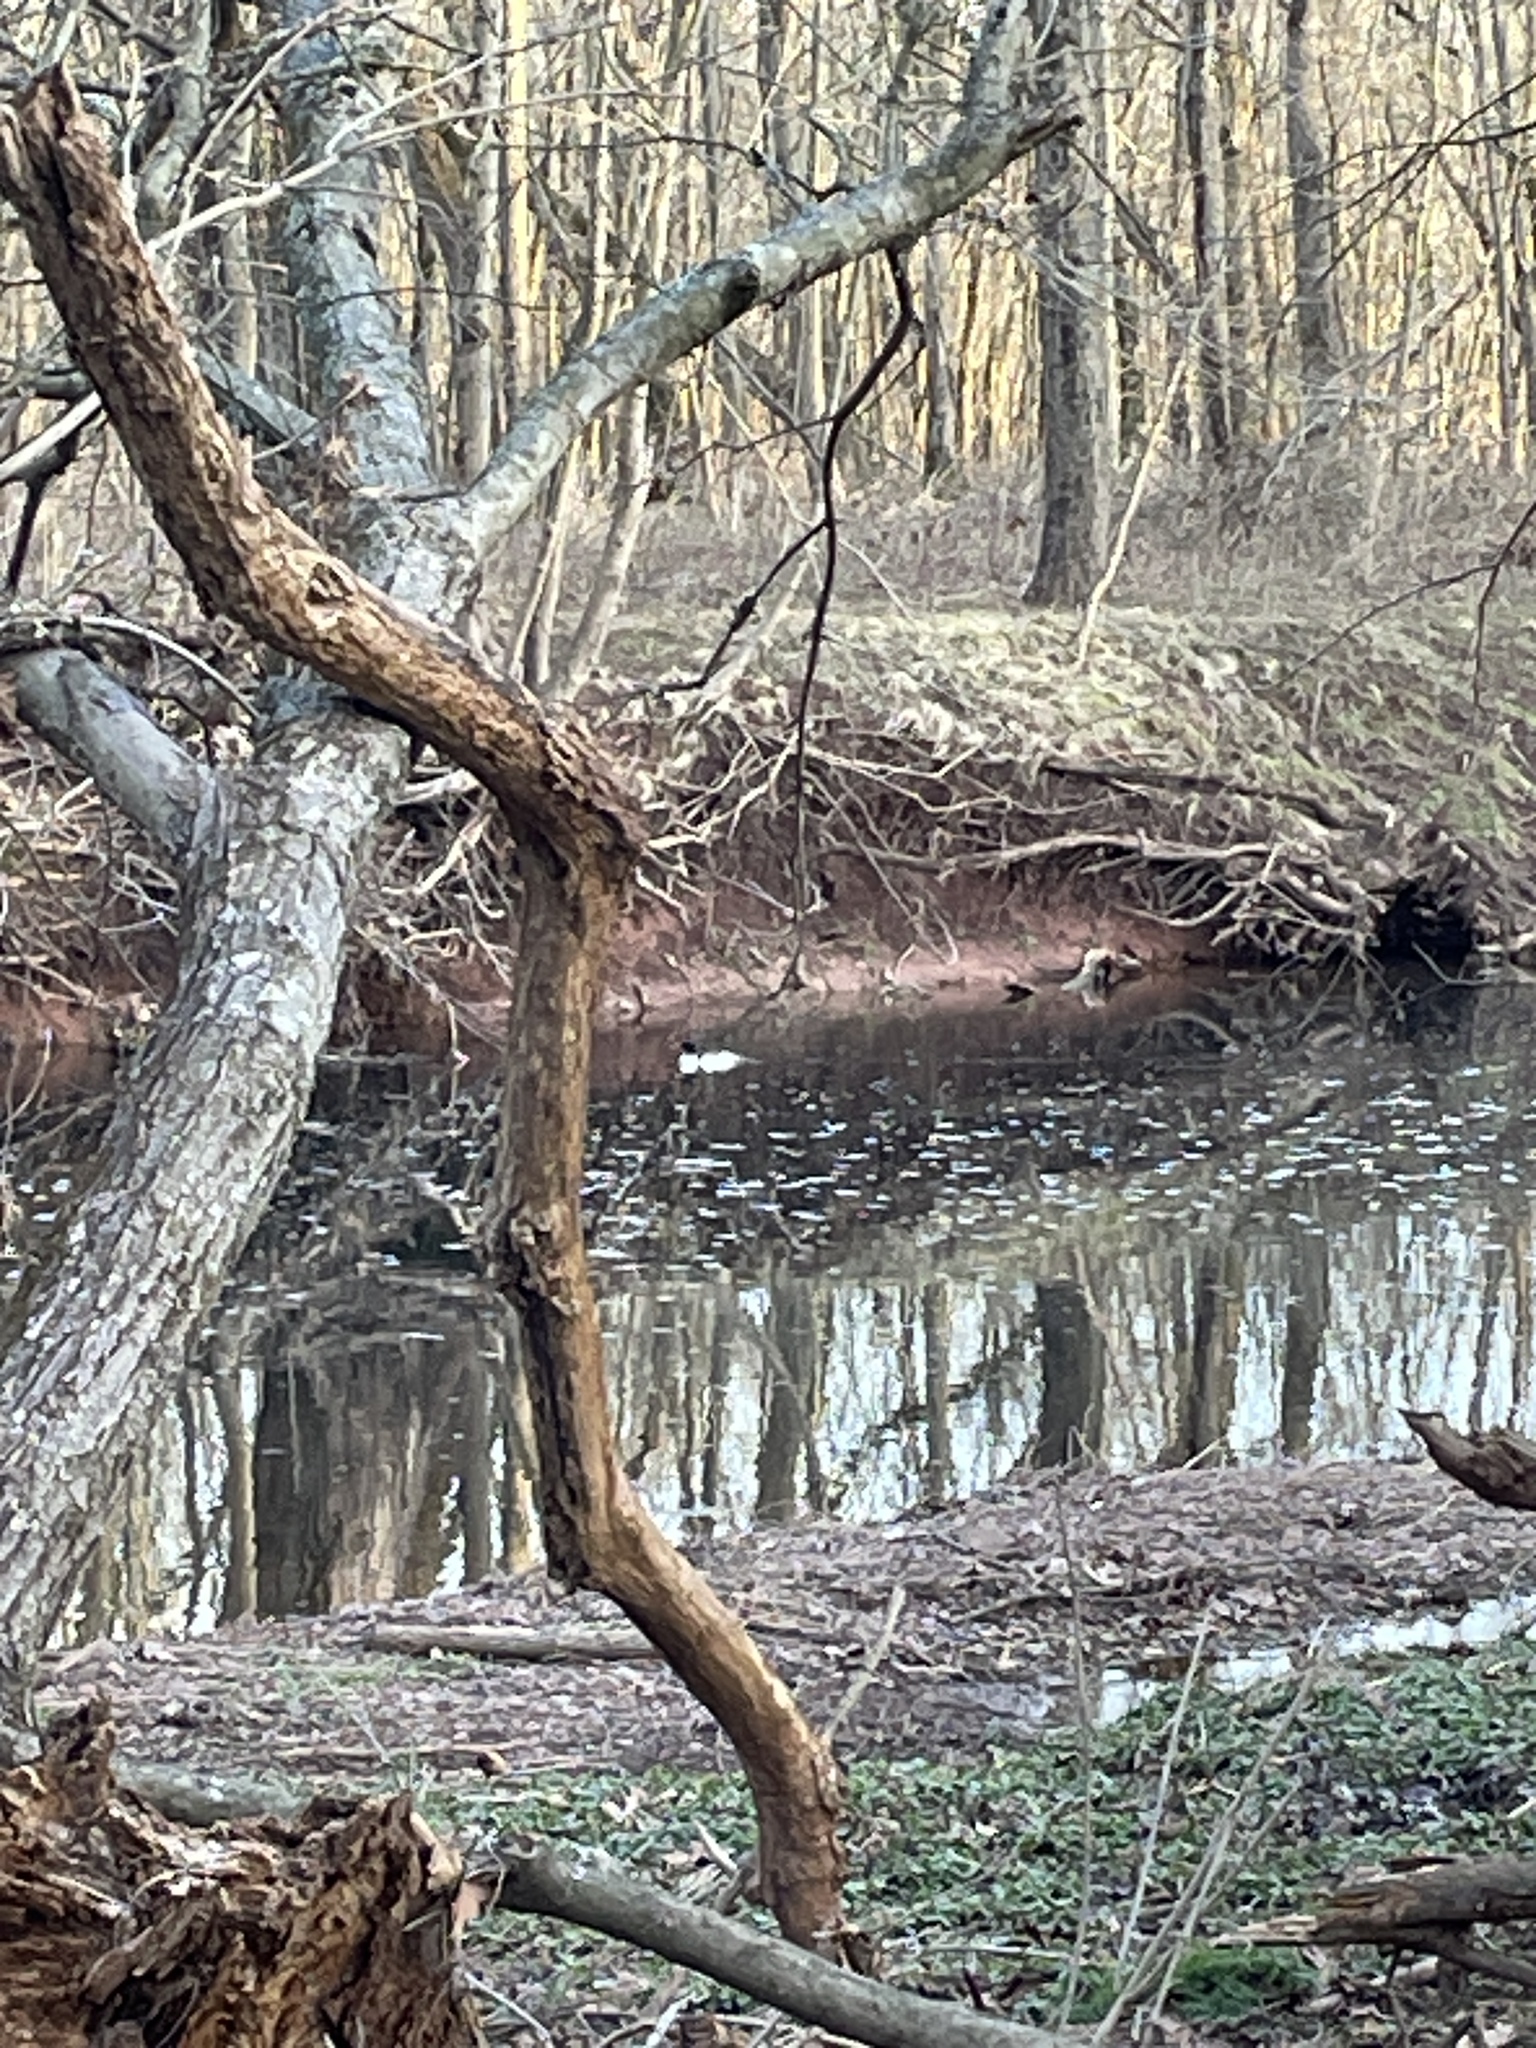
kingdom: Animalia
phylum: Chordata
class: Aves
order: Anseriformes
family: Anatidae
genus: Mergus
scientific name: Mergus merganser
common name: Common merganser
